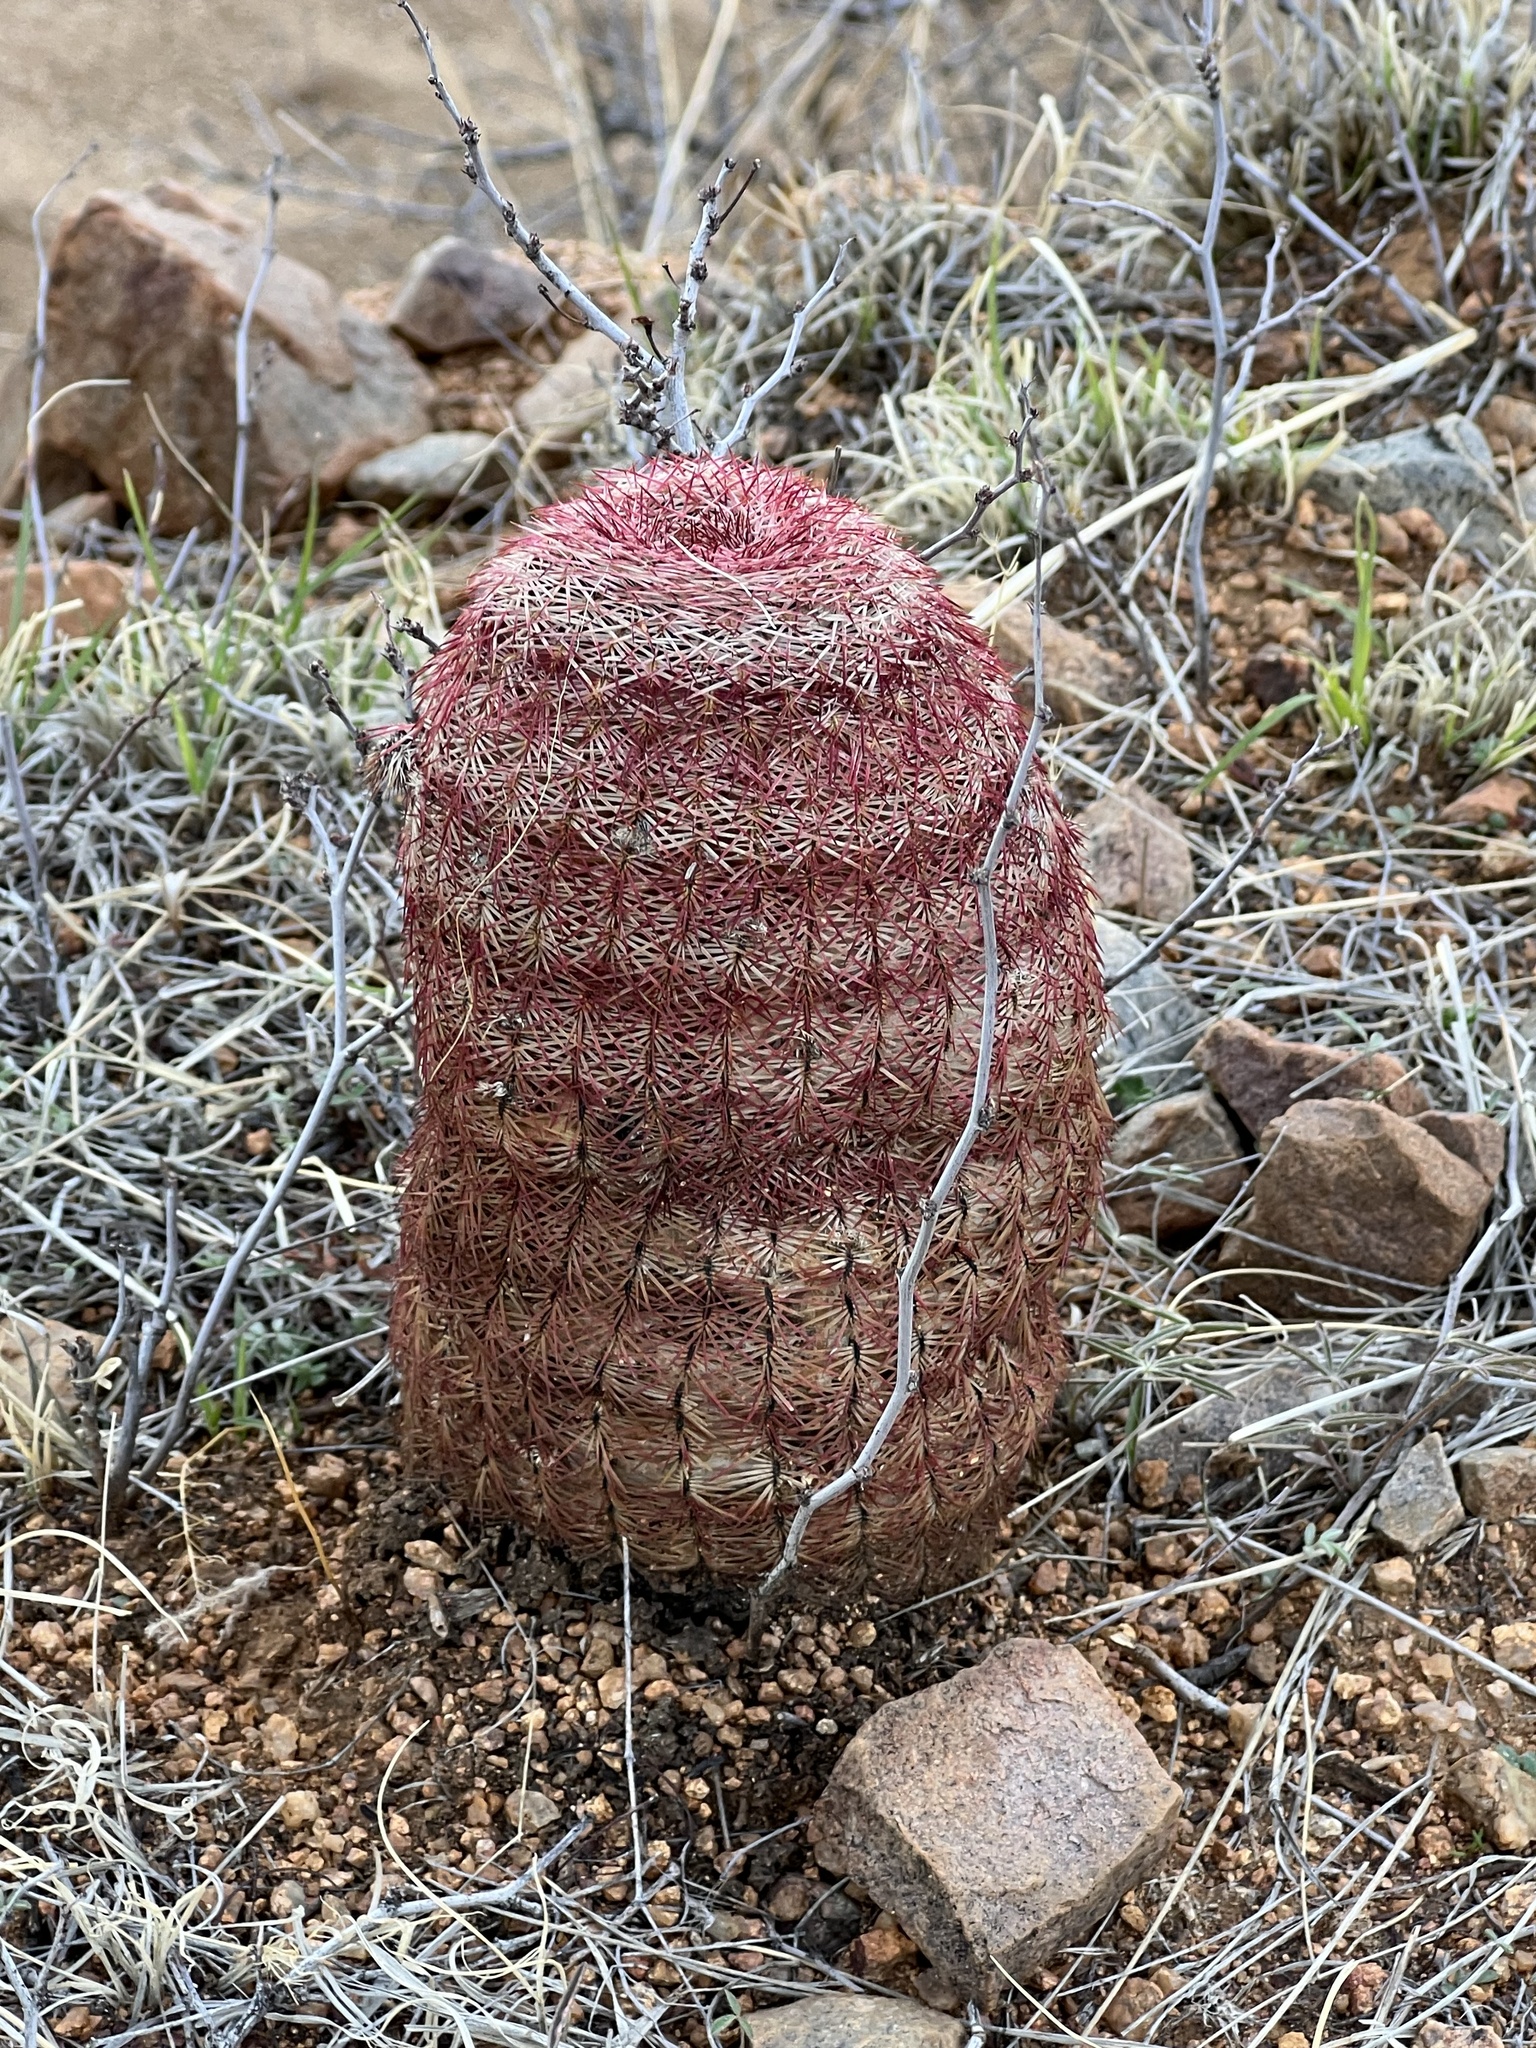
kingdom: Plantae
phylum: Tracheophyta
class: Magnoliopsida
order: Caryophyllales
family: Cactaceae
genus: Echinocereus
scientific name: Echinocereus rigidissimus
